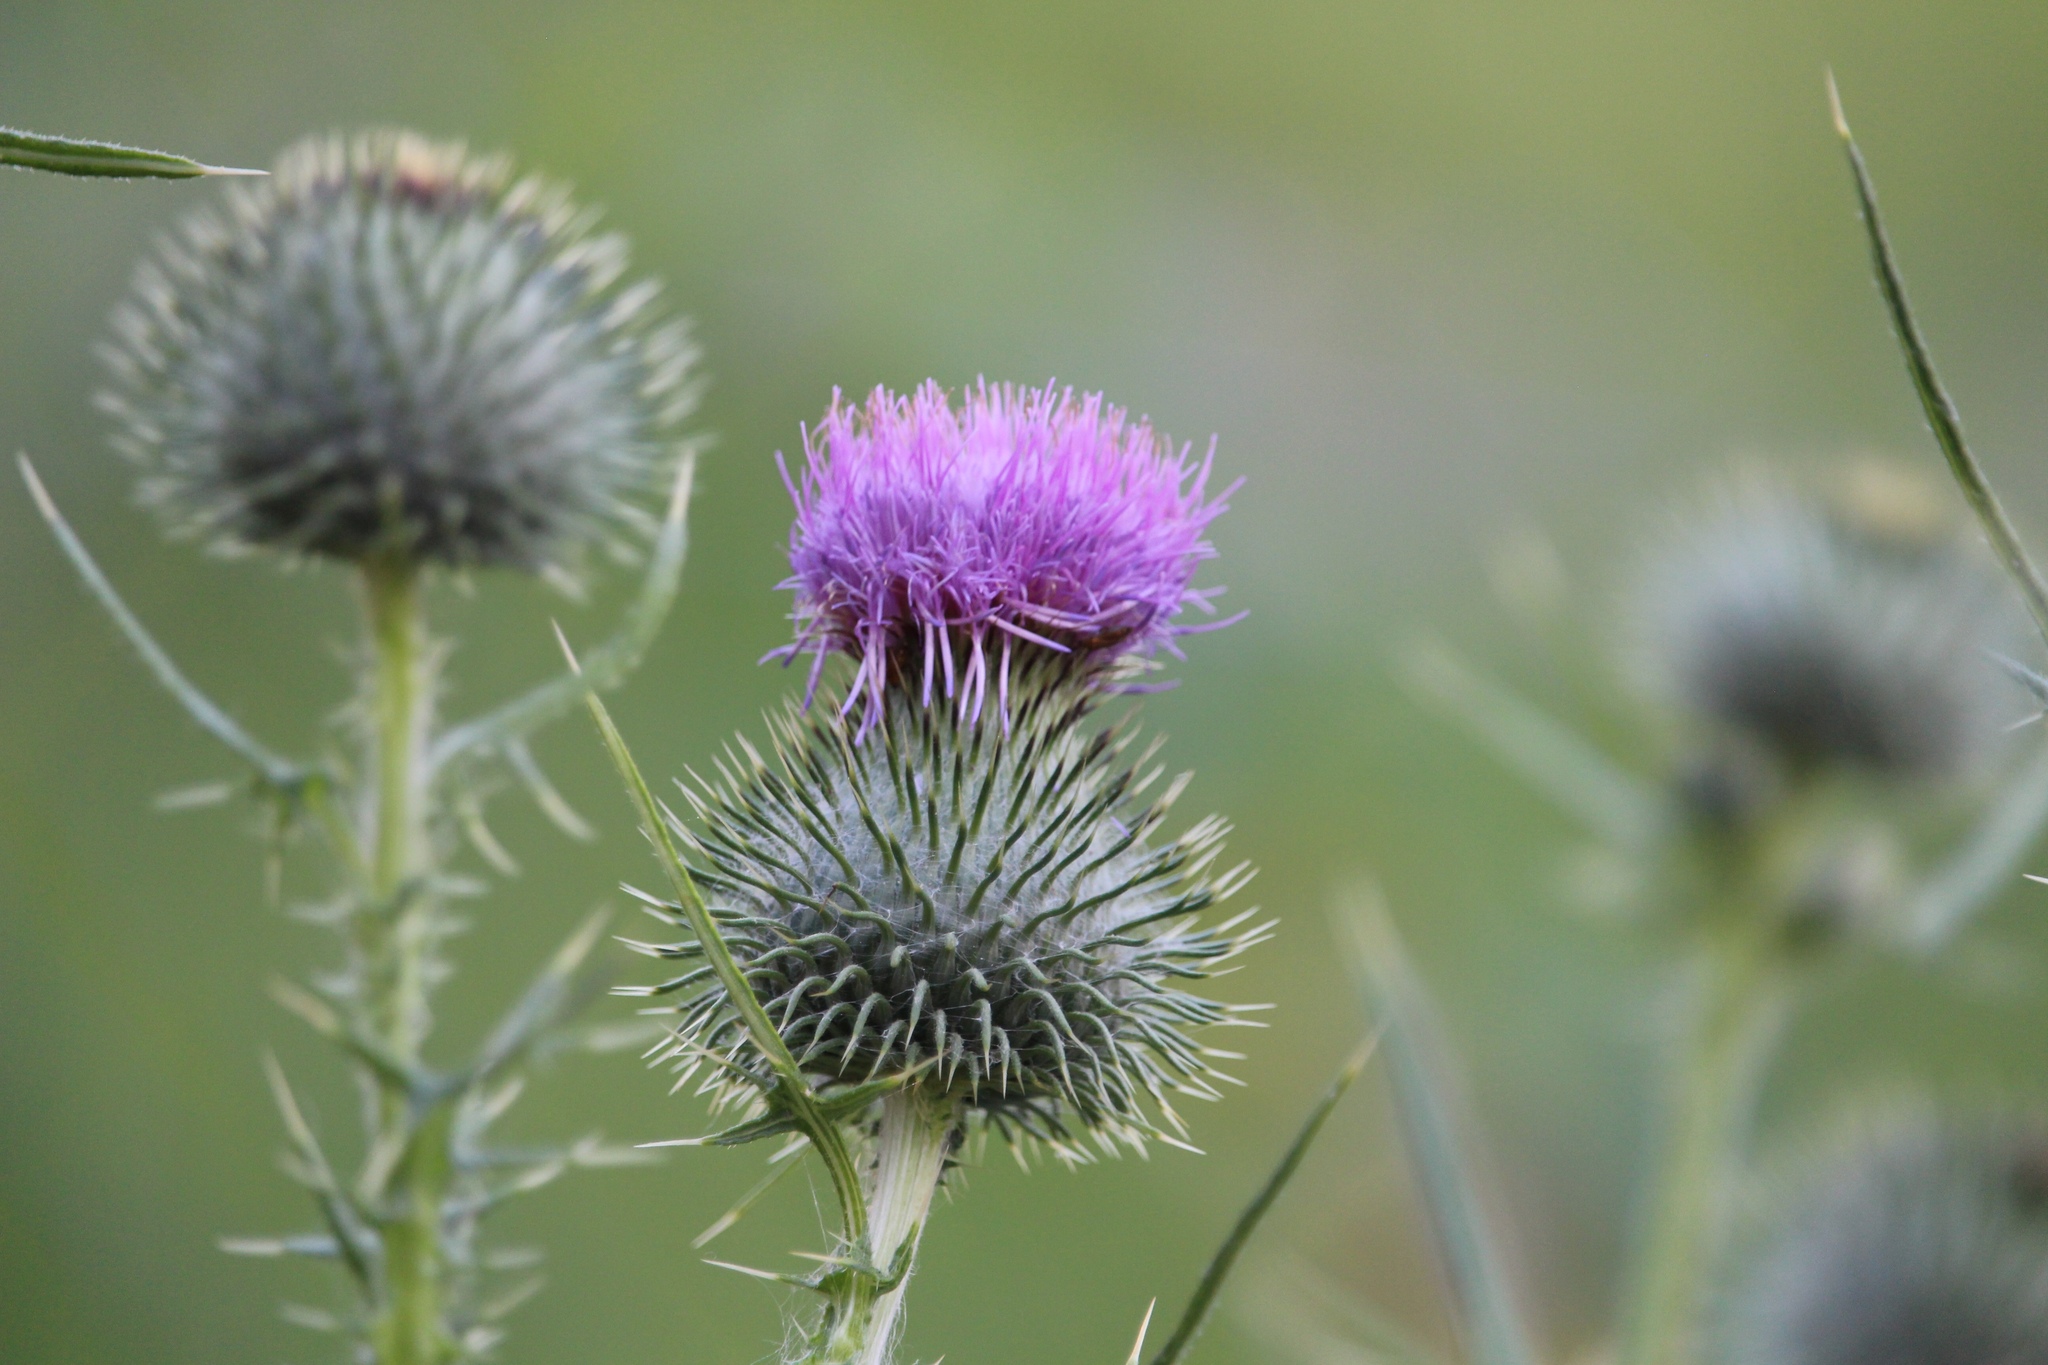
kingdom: Plantae
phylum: Tracheophyta
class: Magnoliopsida
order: Asterales
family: Asteraceae
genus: Cirsium
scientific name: Cirsium vulgare
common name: Bull thistle
